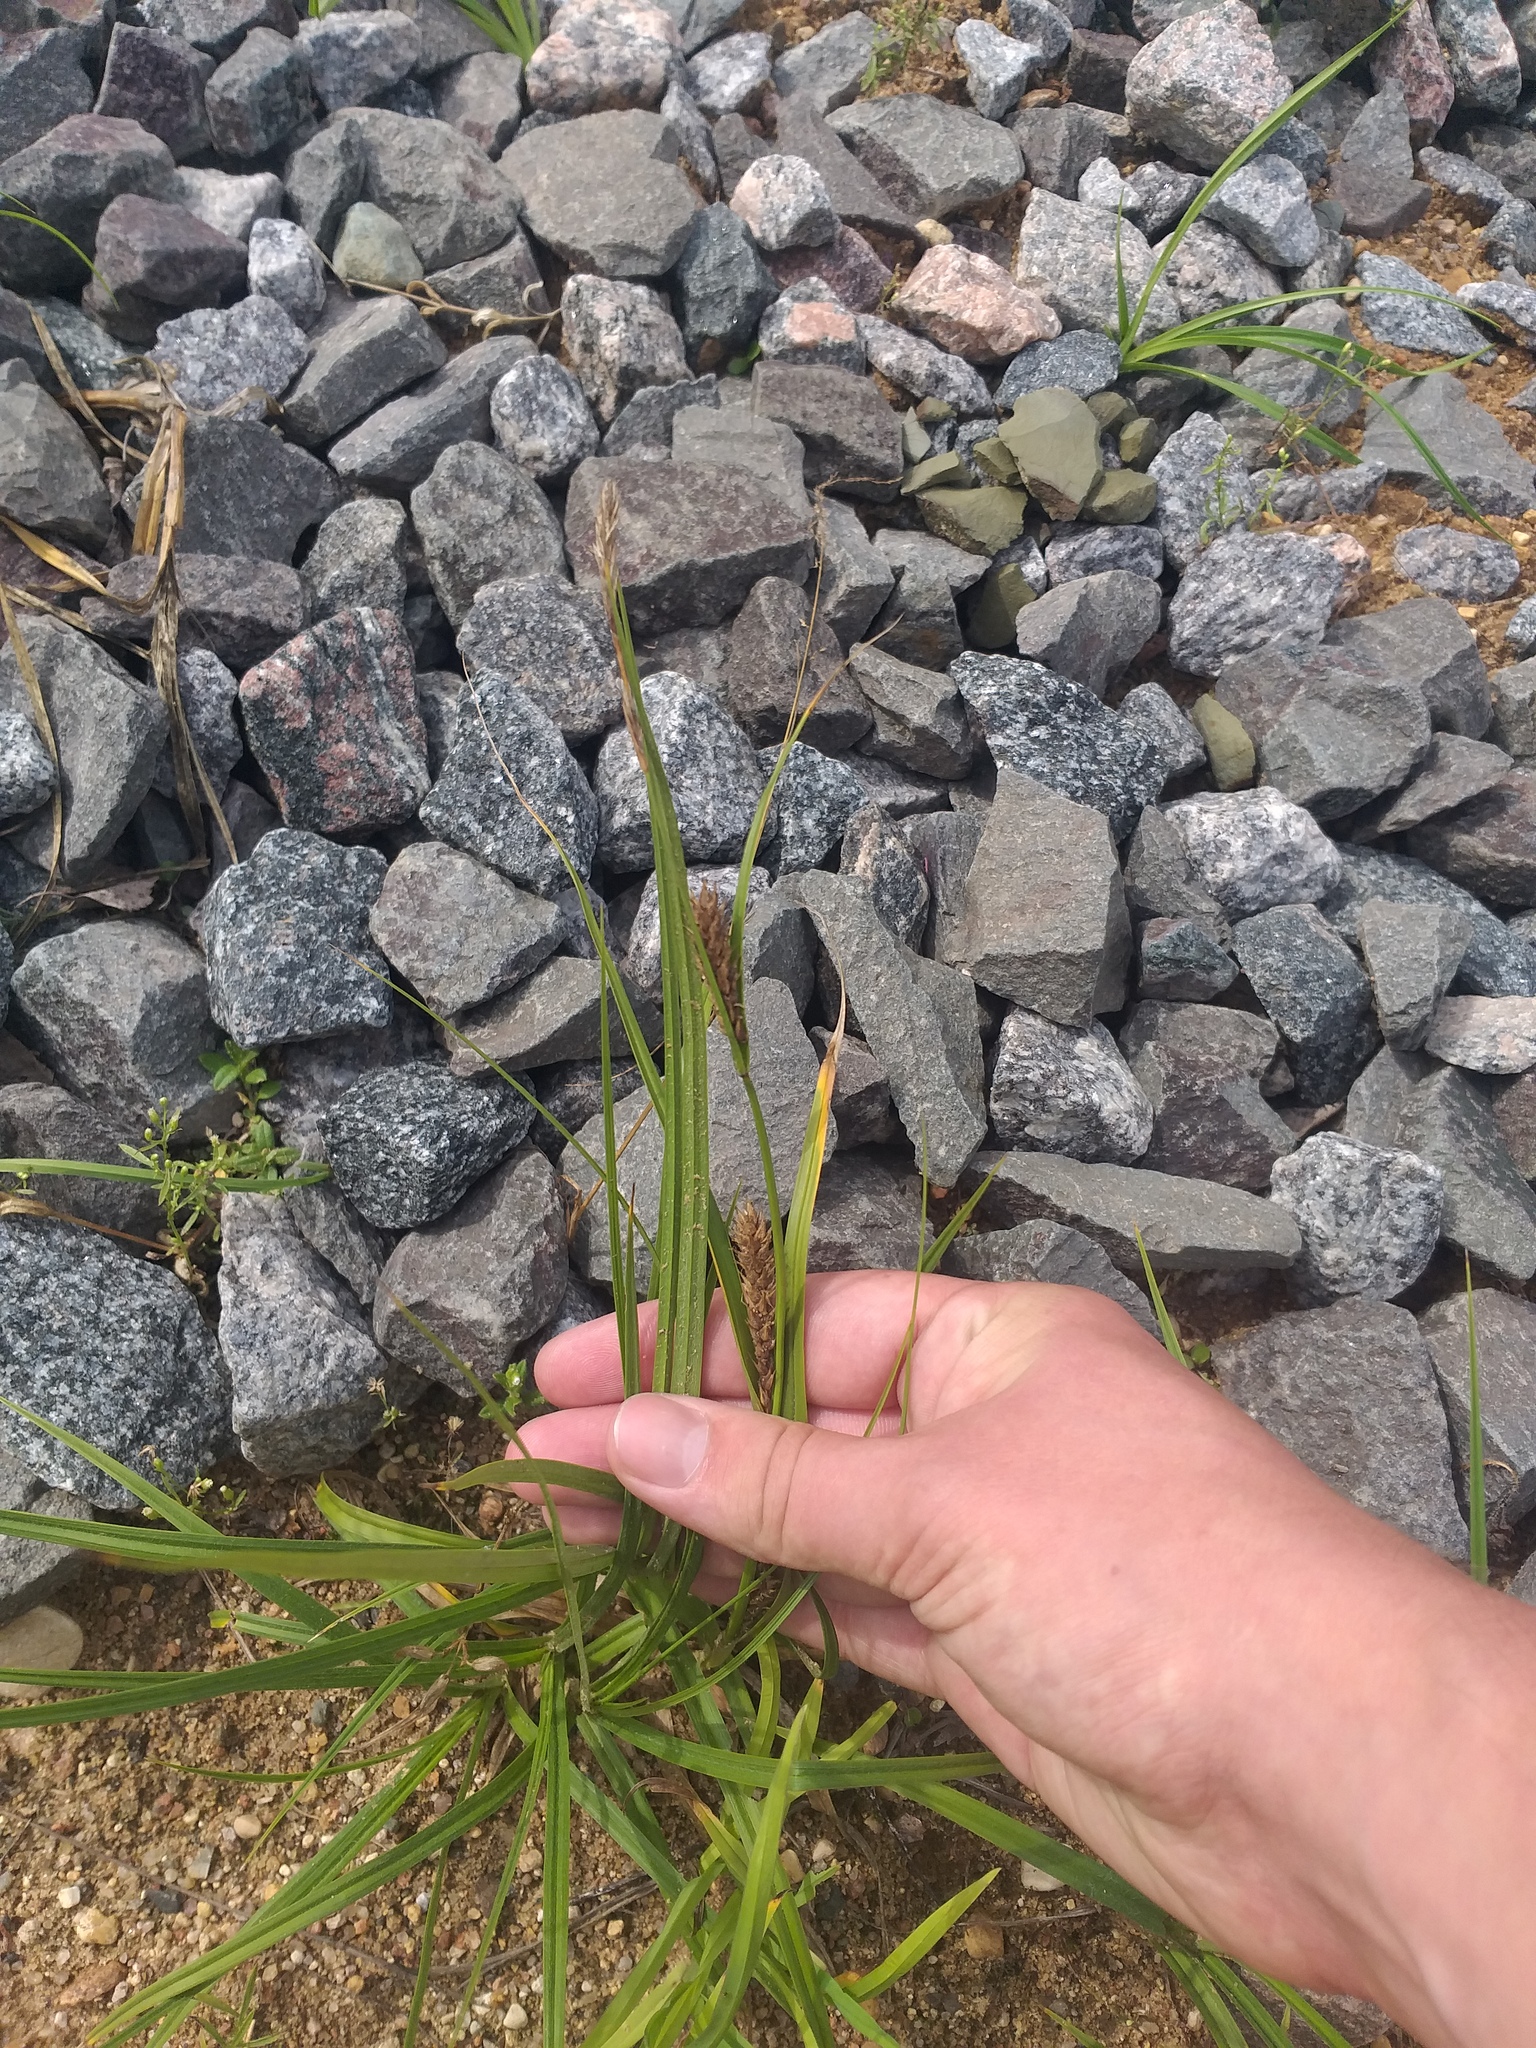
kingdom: Plantae
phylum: Tracheophyta
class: Liliopsida
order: Poales
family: Cyperaceae
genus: Carex
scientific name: Carex hirta
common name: Hairy sedge
